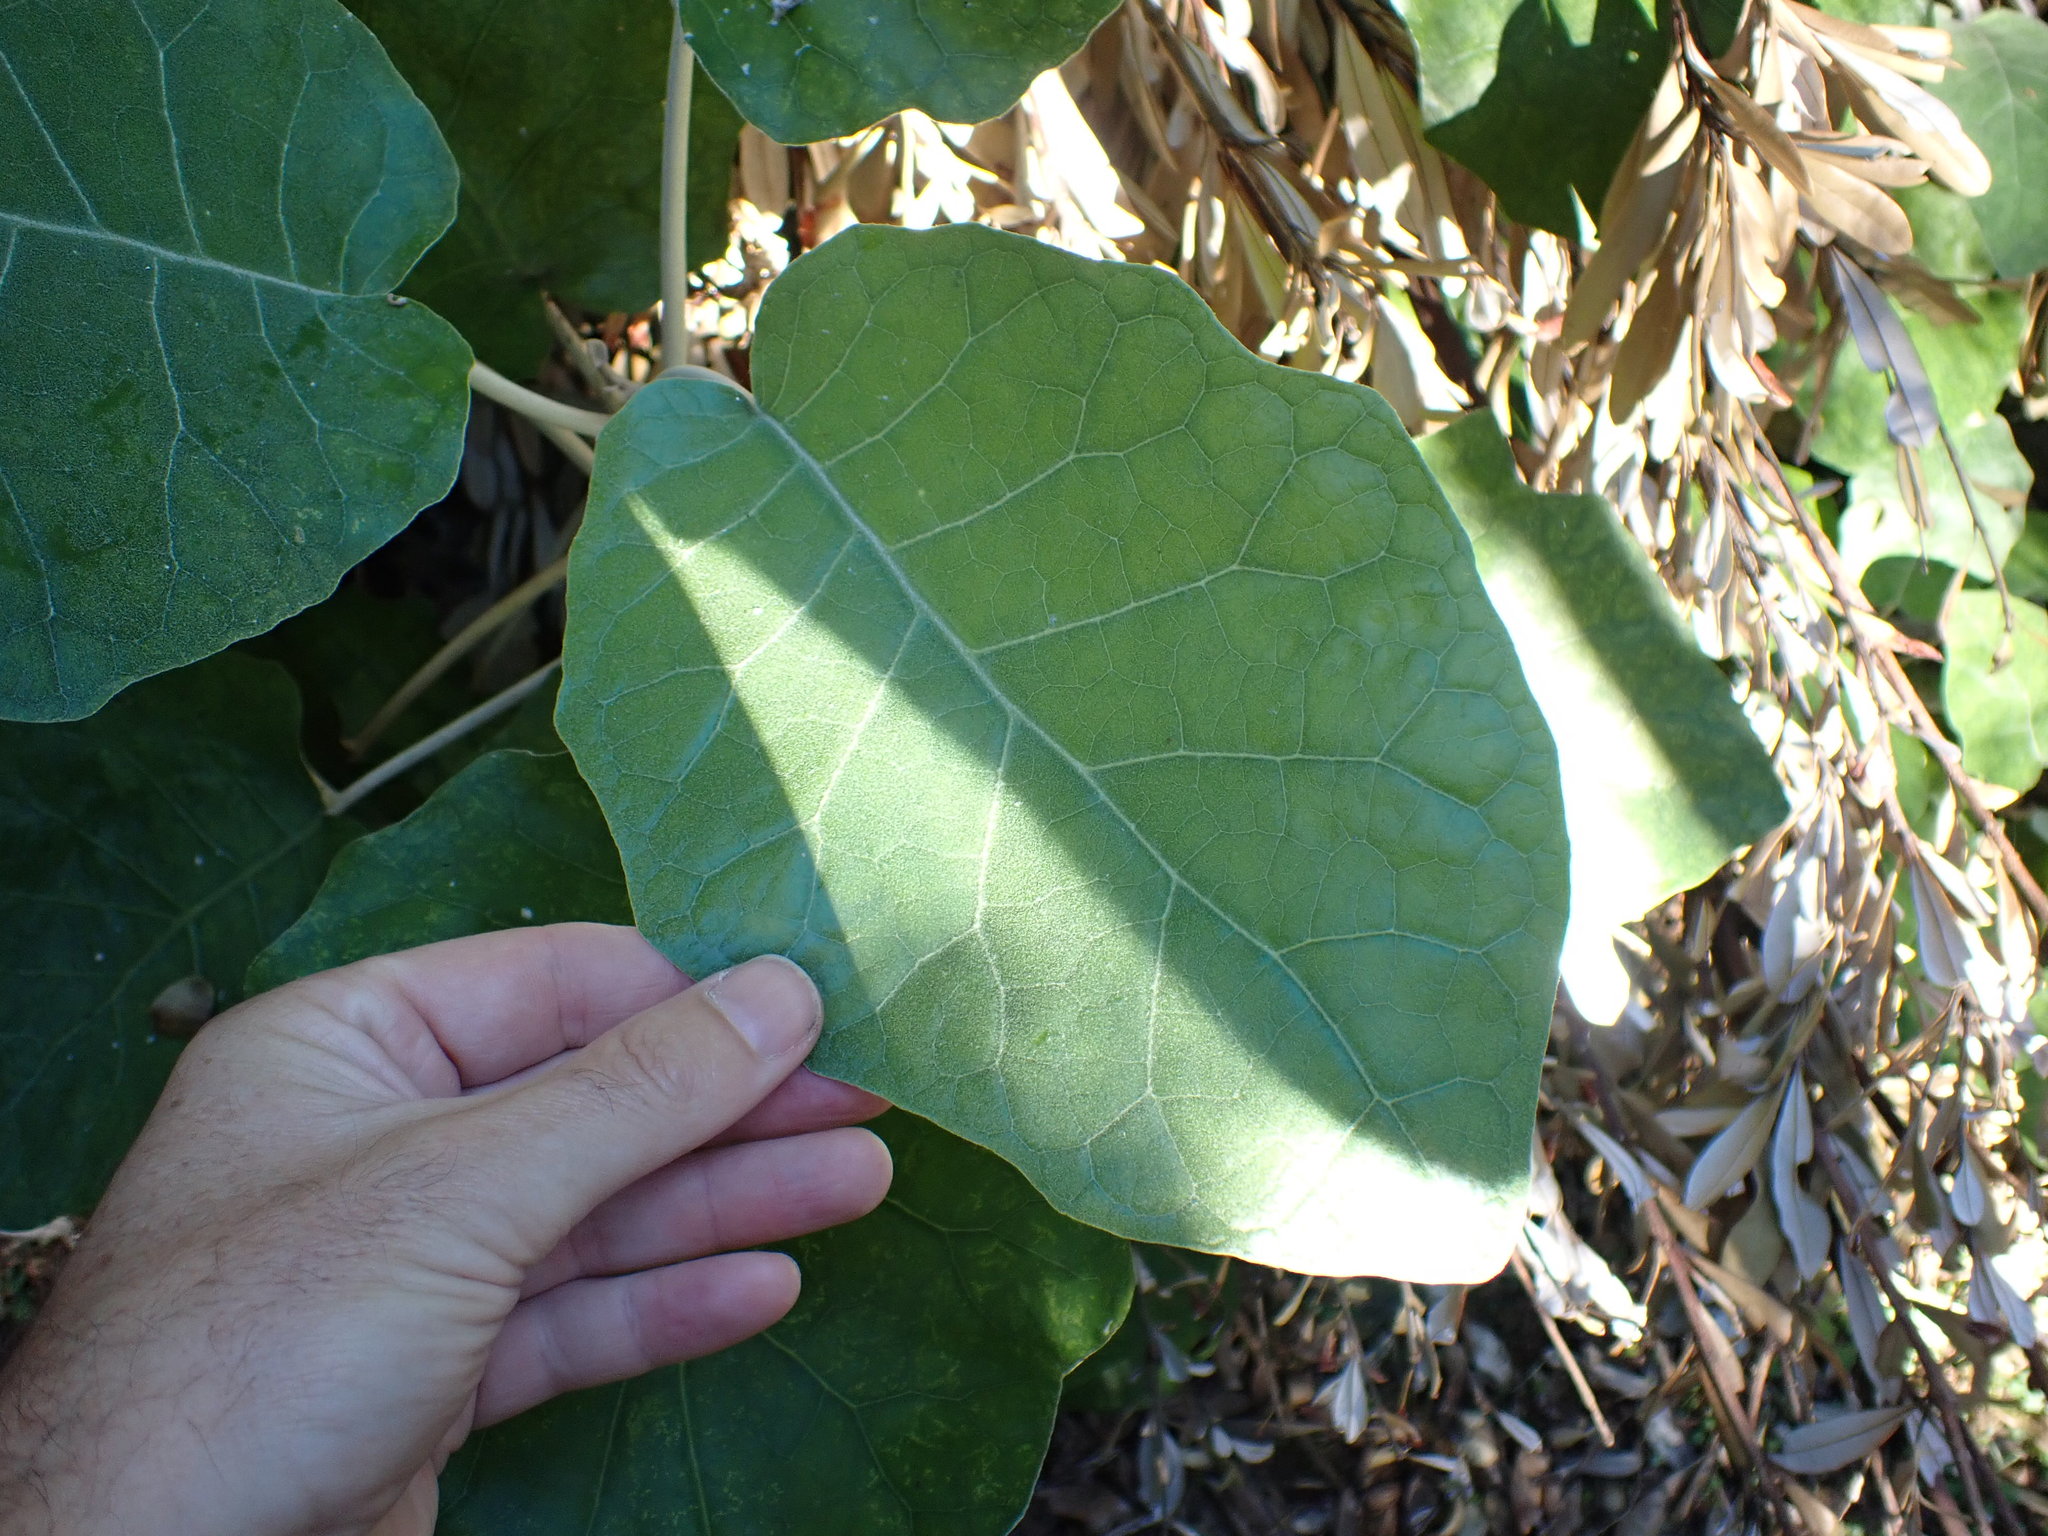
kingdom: Plantae
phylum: Tracheophyta
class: Magnoliopsida
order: Asterales
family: Asteraceae
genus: Brachyglottis
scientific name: Brachyglottis repanda
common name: Hedge ragwort
